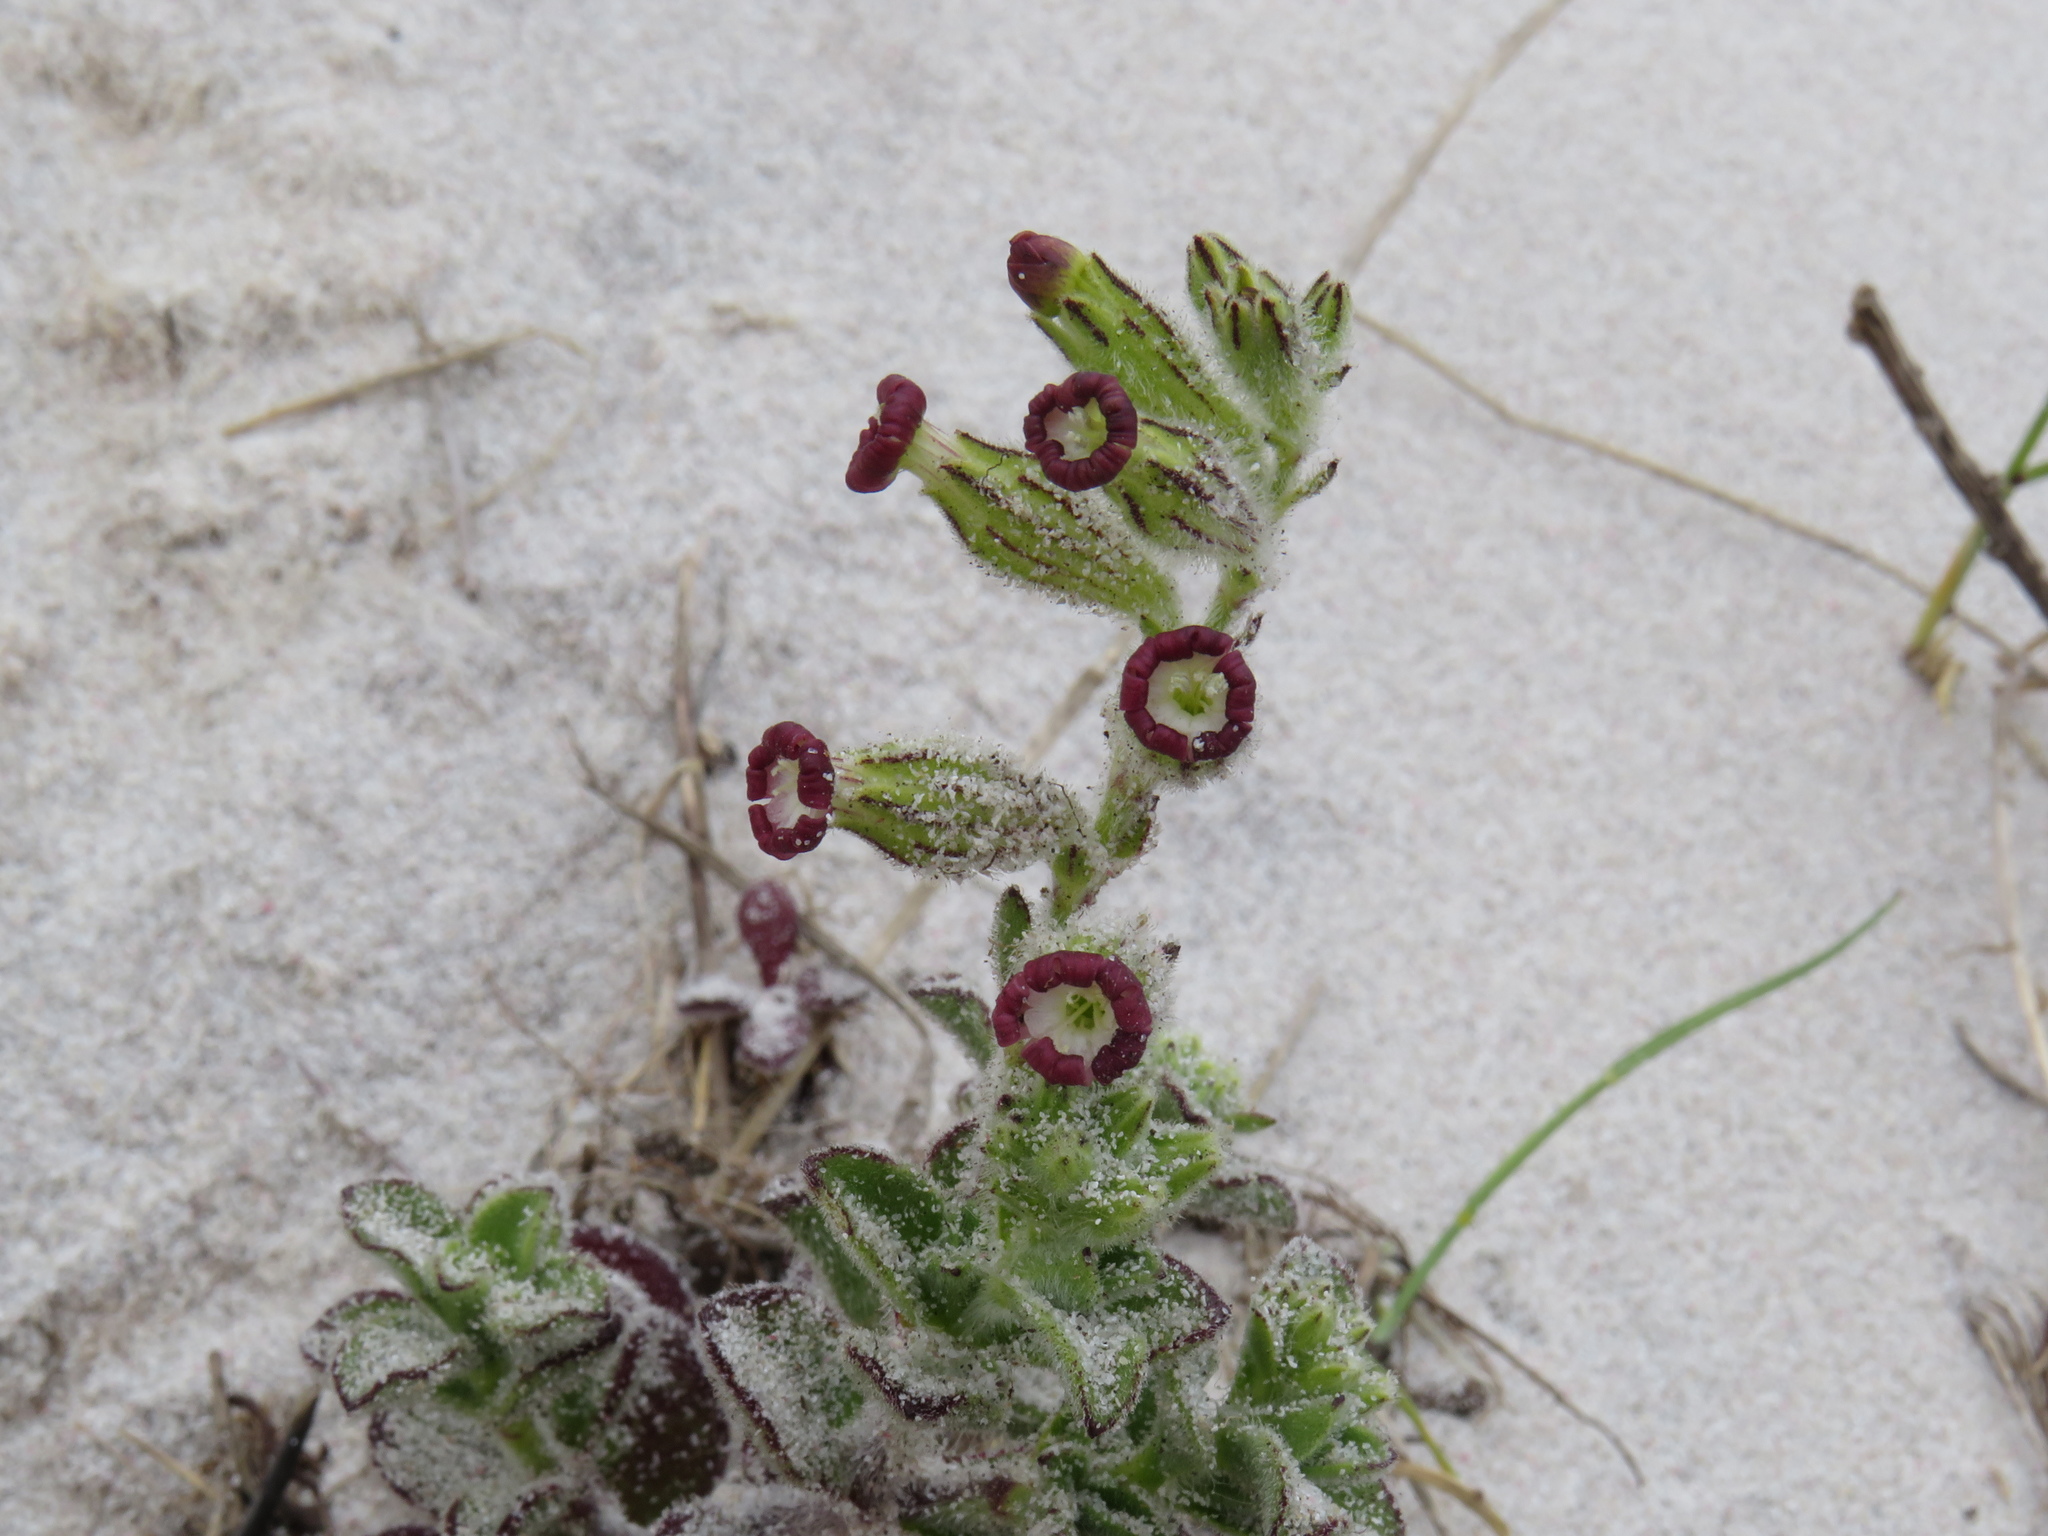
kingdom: Plantae
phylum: Tracheophyta
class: Magnoliopsida
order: Caryophyllales
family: Caryophyllaceae
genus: Silene
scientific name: Silene crassifolia
